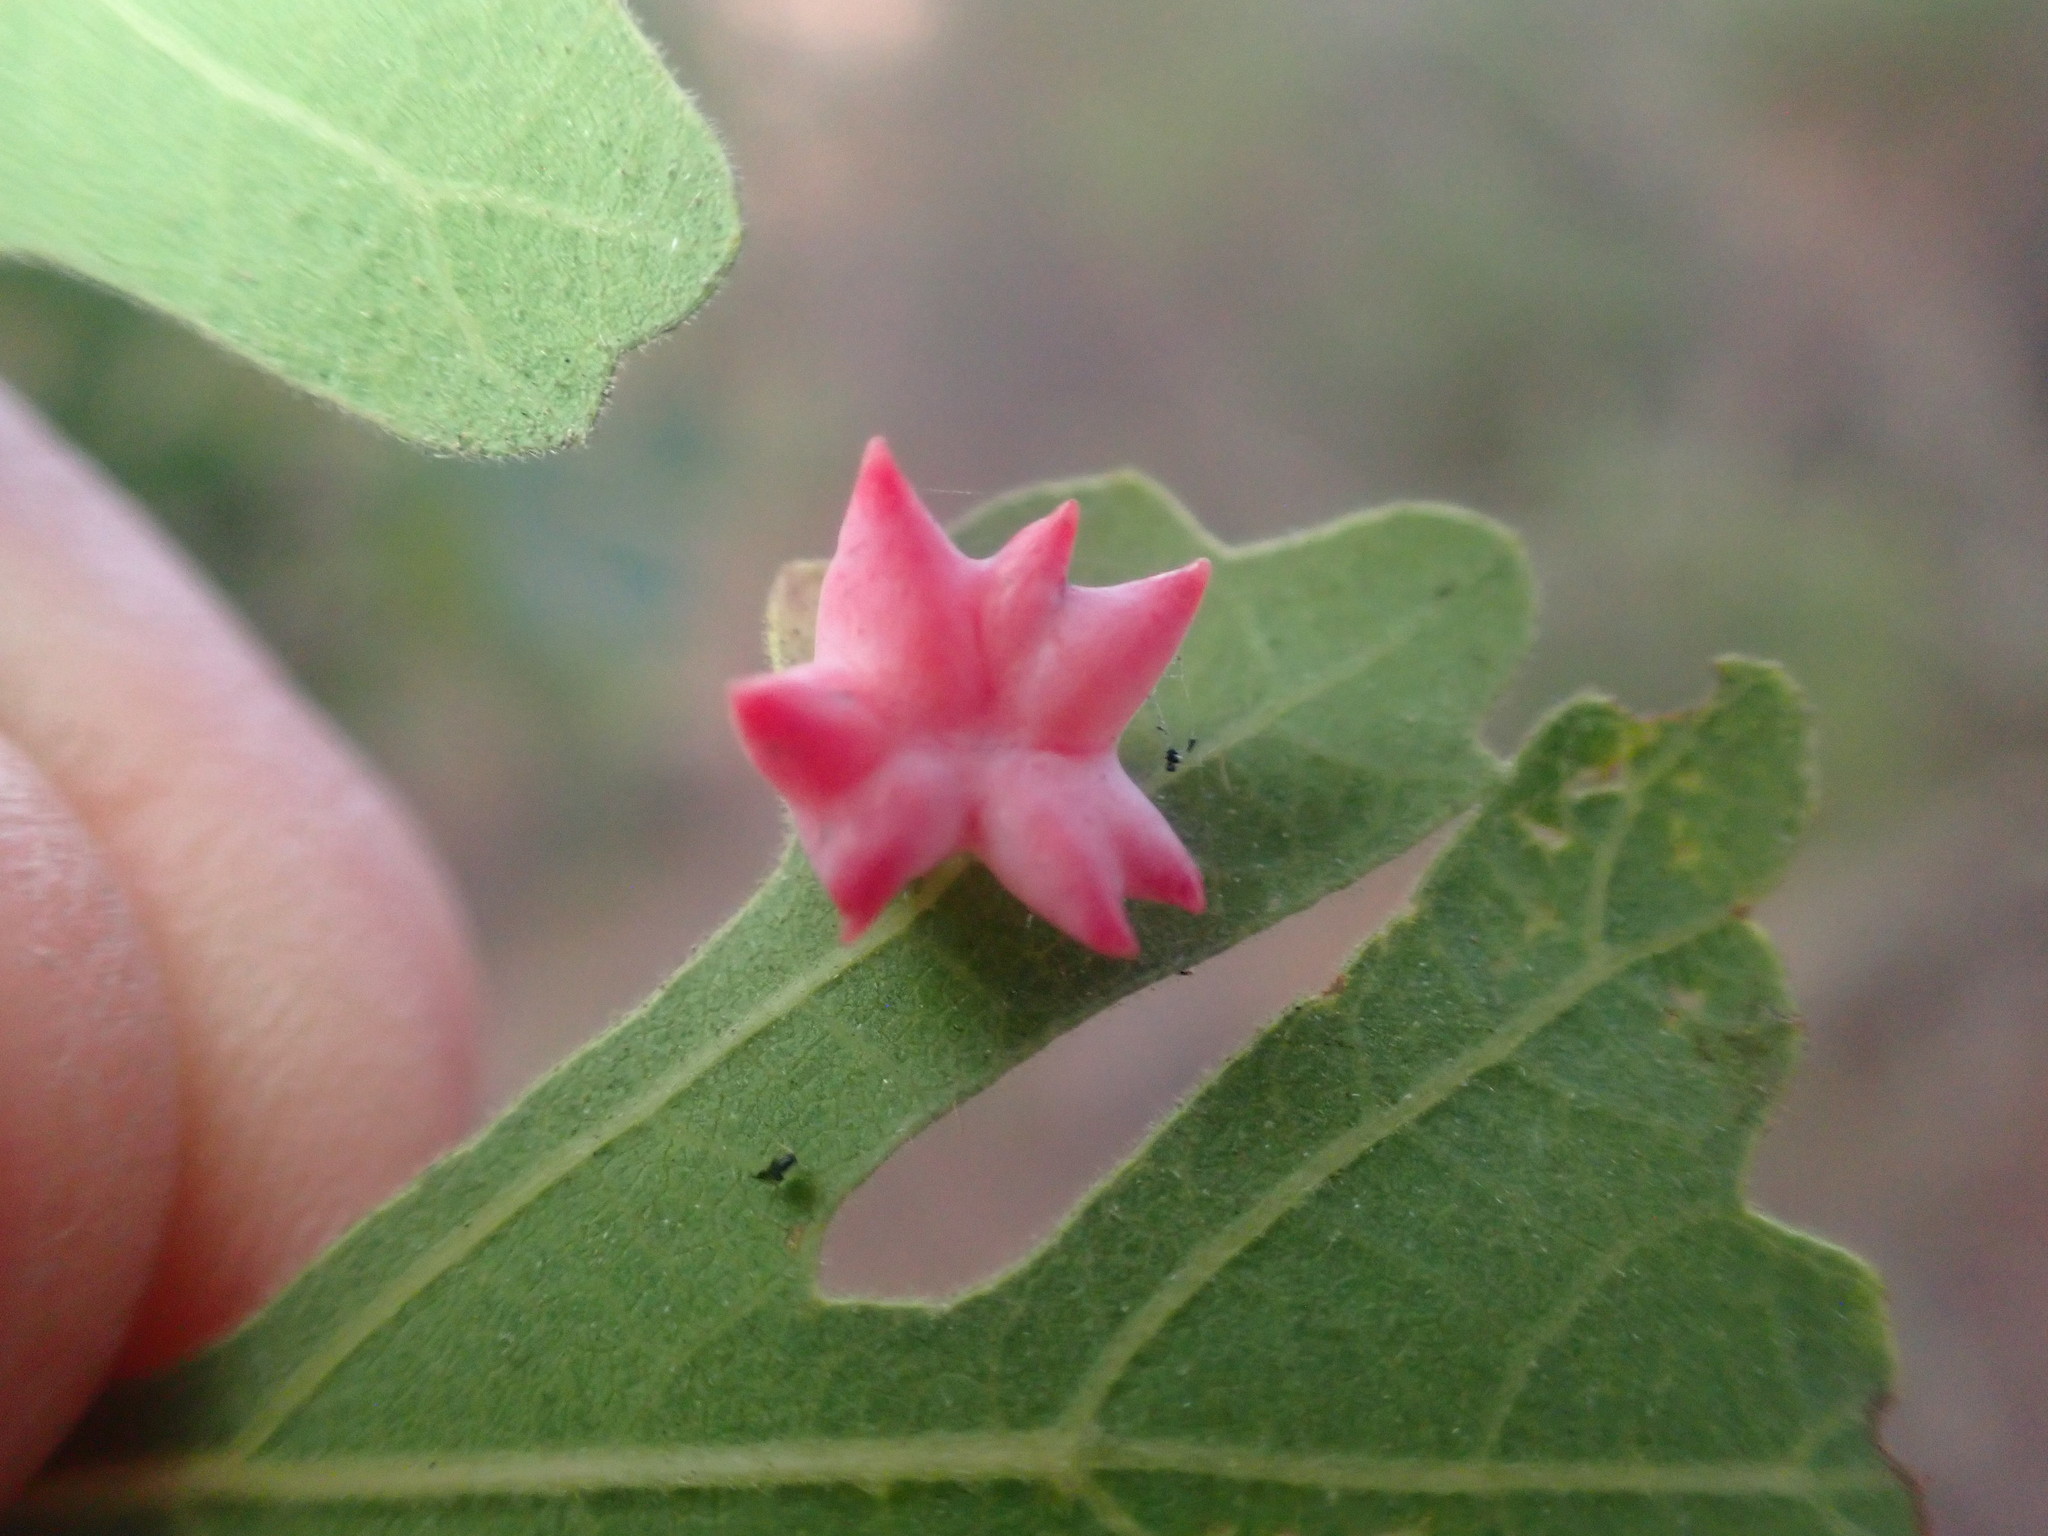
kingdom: Animalia
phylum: Arthropoda
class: Insecta
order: Hymenoptera
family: Cynipidae
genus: Cynips
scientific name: Cynips douglasi
